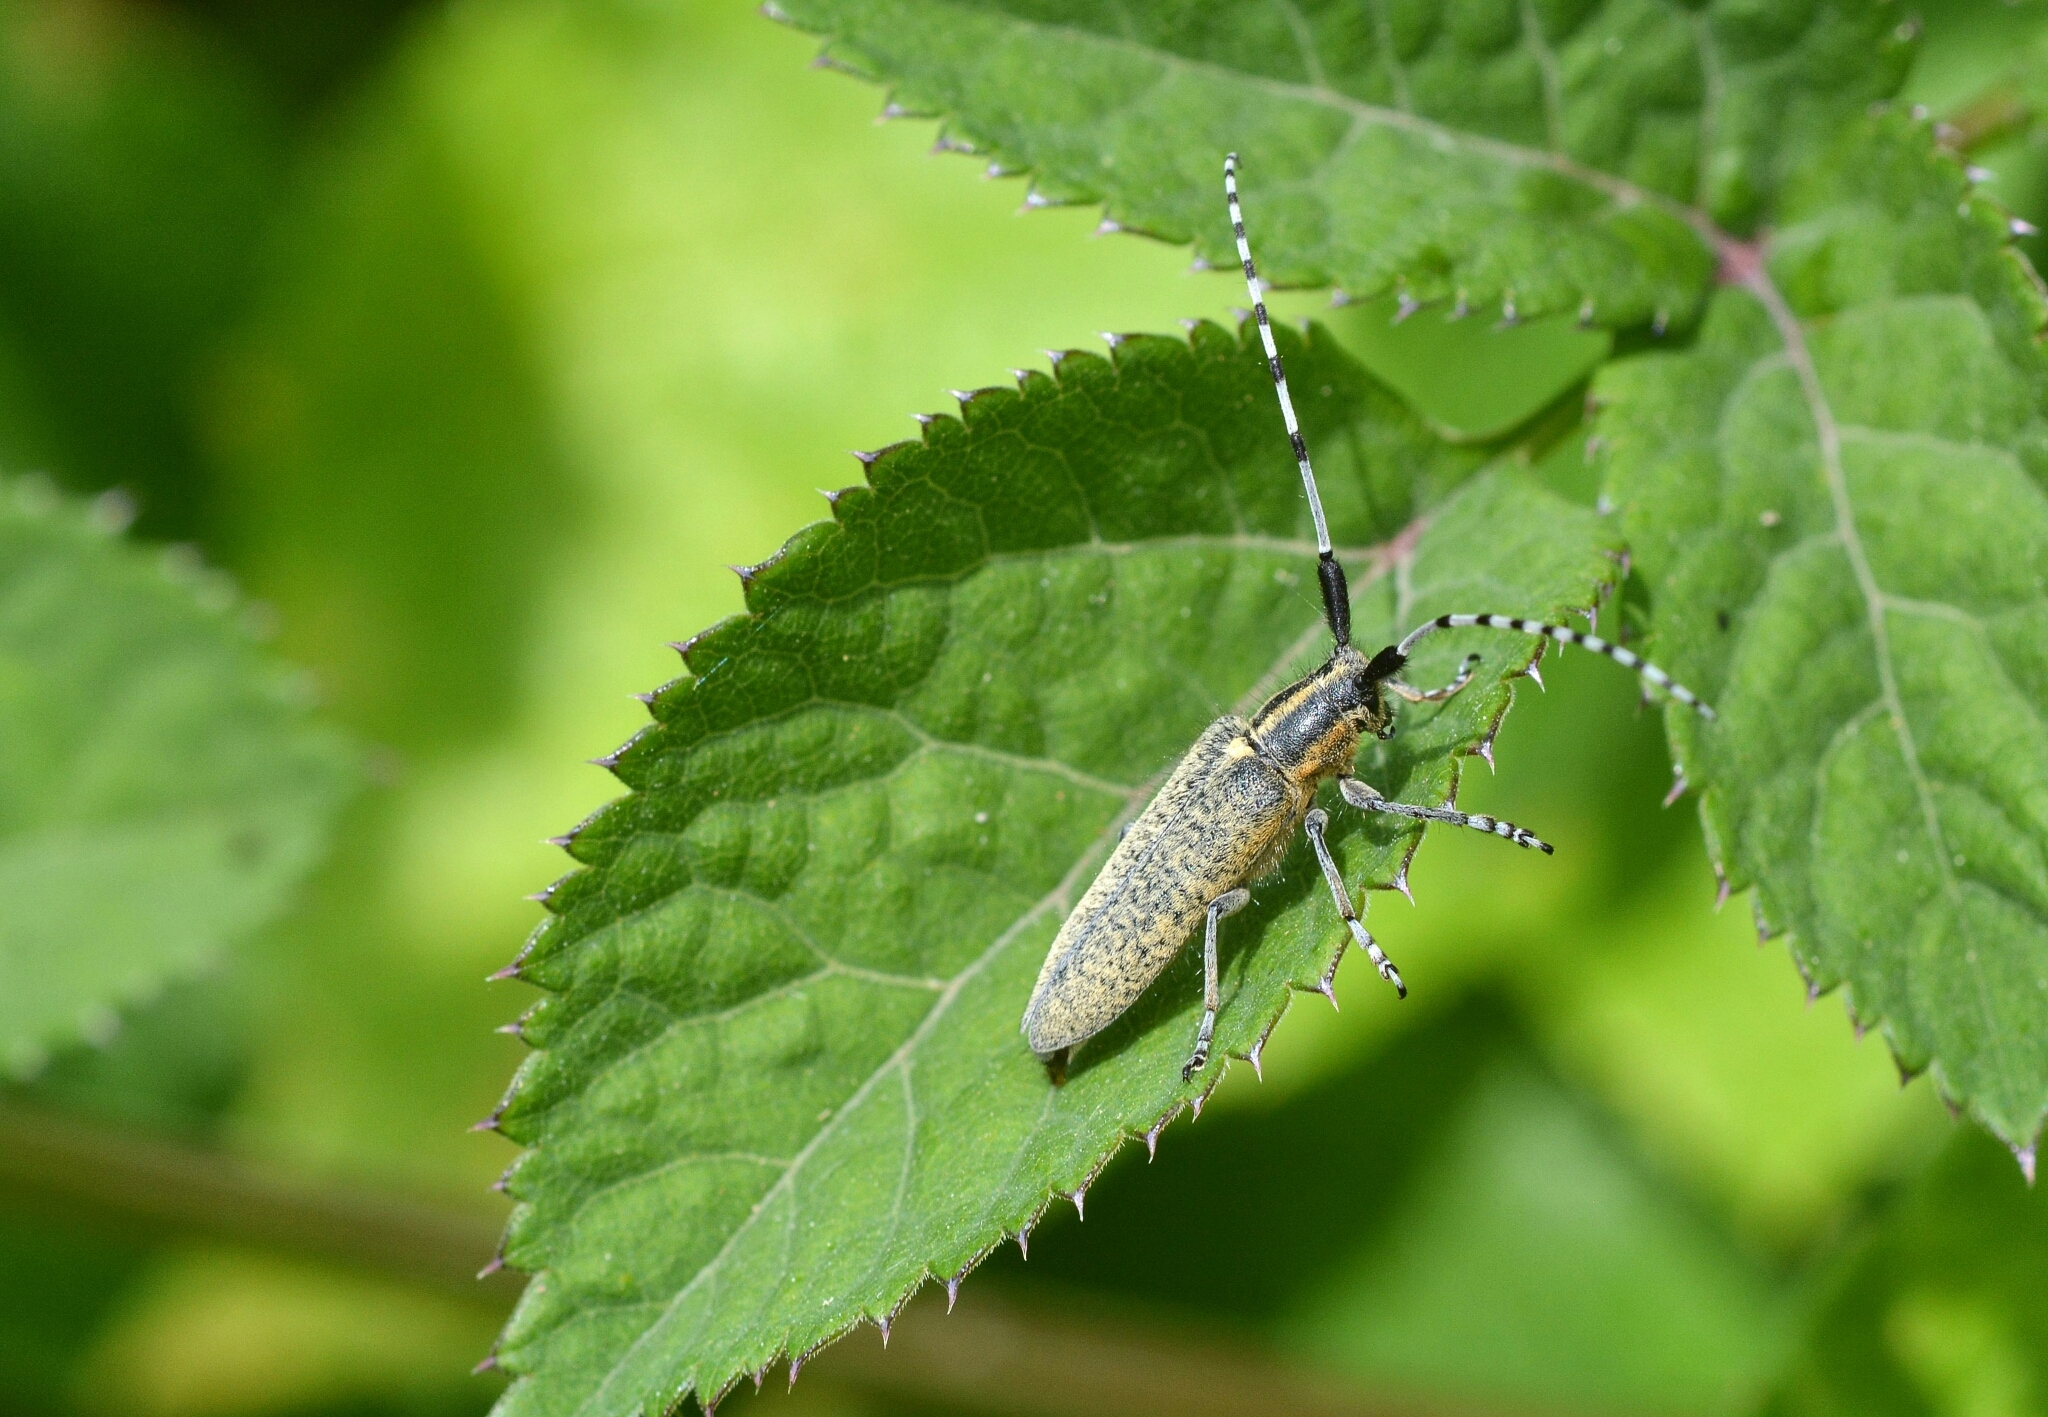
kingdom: Animalia
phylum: Arthropoda
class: Insecta
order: Coleoptera
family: Cerambycidae
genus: Agapanthia
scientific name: Agapanthia villosoviridescens
